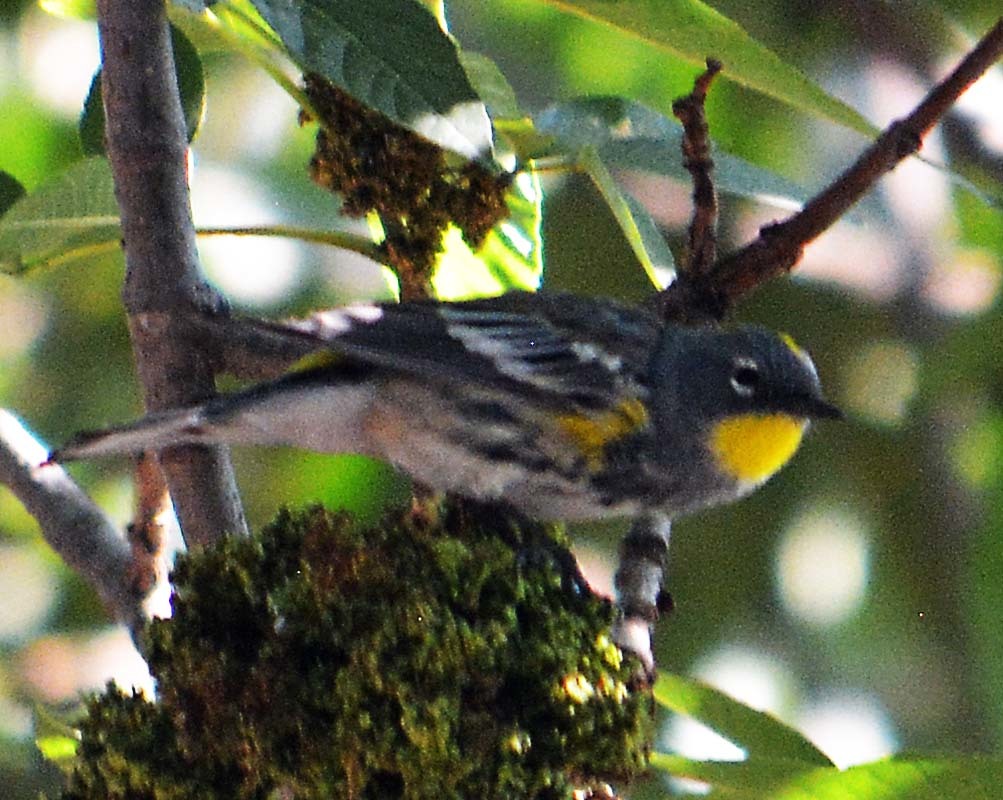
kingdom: Animalia
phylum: Chordata
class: Aves
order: Passeriformes
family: Parulidae
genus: Setophaga
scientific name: Setophaga auduboni
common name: Audubon's warbler
